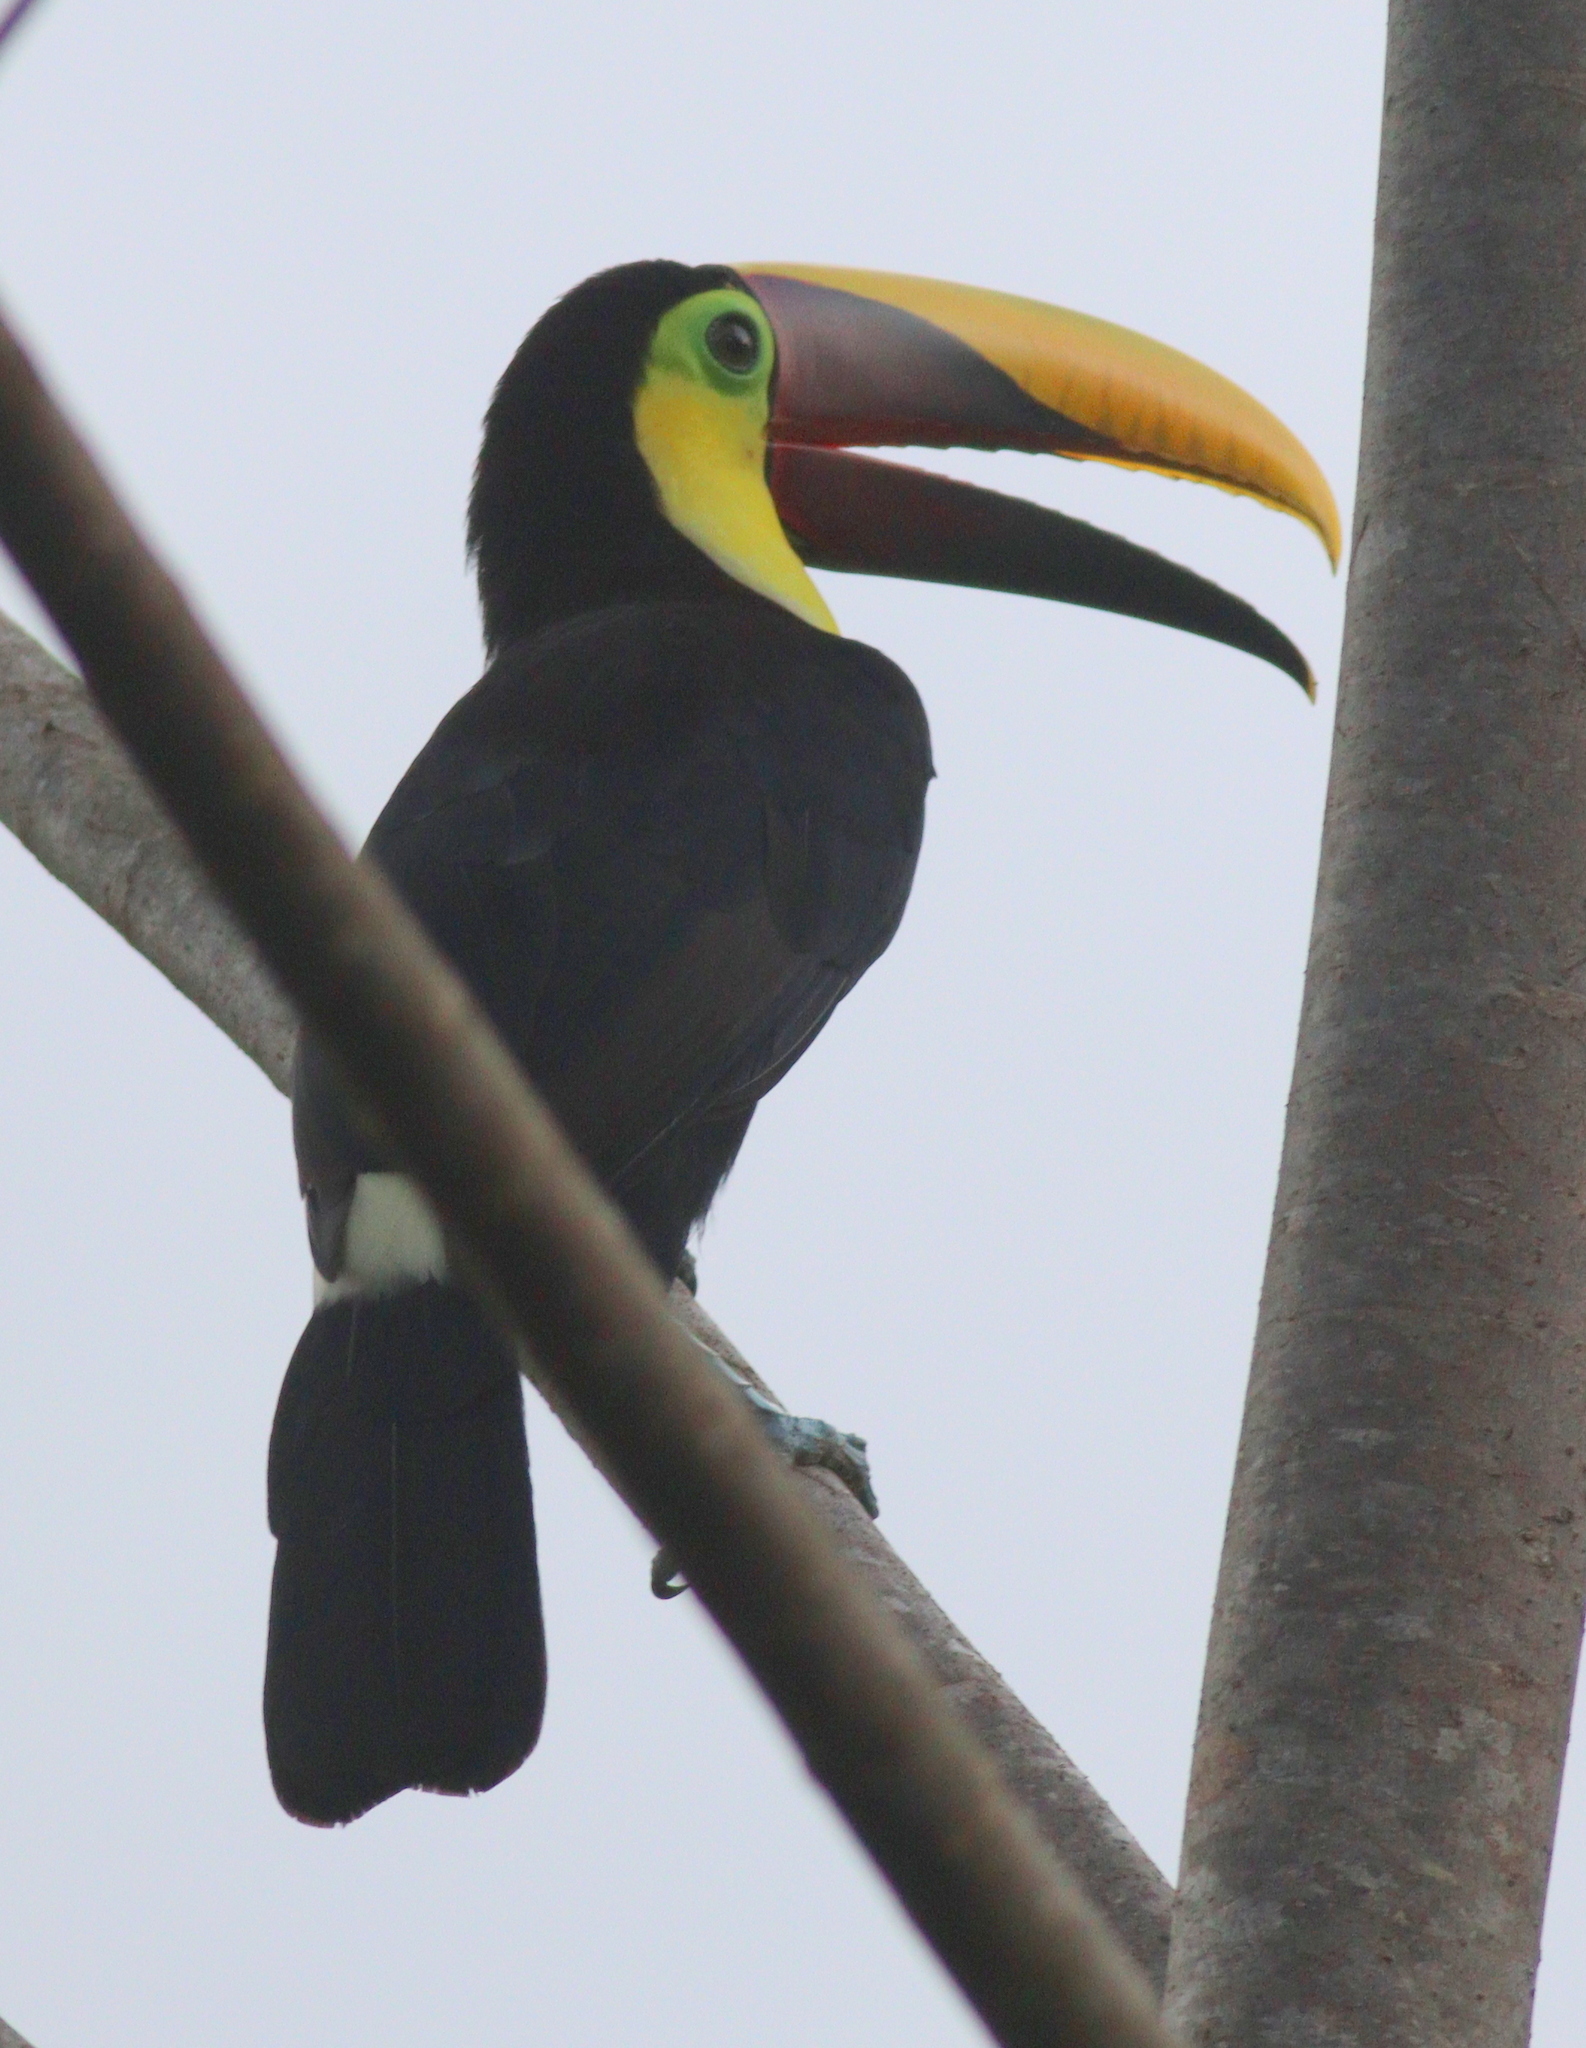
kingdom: Animalia
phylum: Chordata
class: Aves
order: Piciformes
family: Ramphastidae
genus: Ramphastos
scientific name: Ramphastos ambiguus
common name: Yellow-throated toucan
